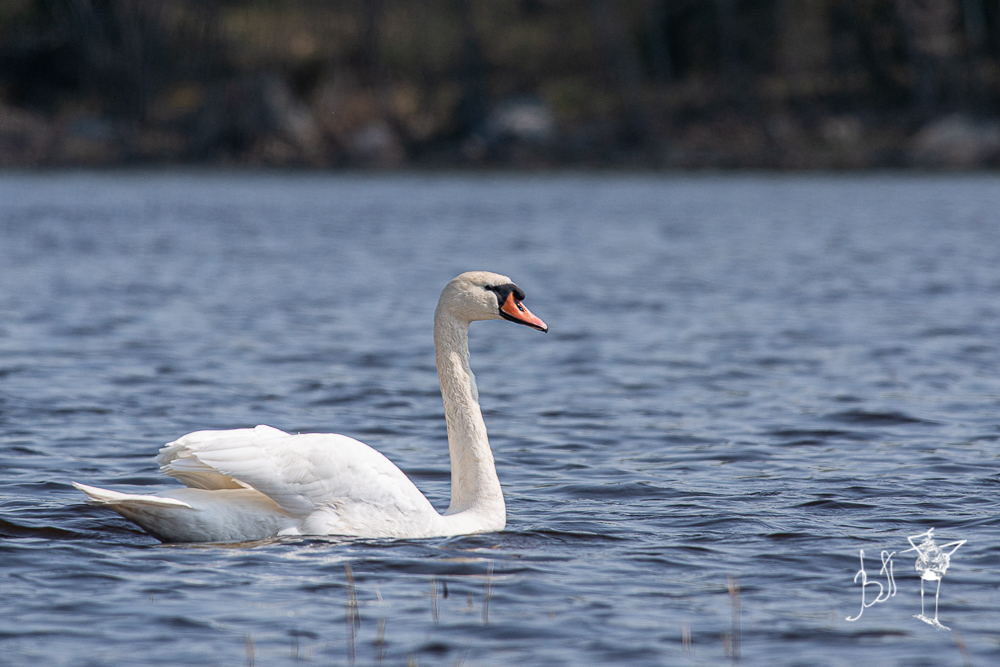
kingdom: Animalia
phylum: Chordata
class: Aves
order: Anseriformes
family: Anatidae
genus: Cygnus
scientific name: Cygnus olor
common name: Mute swan
